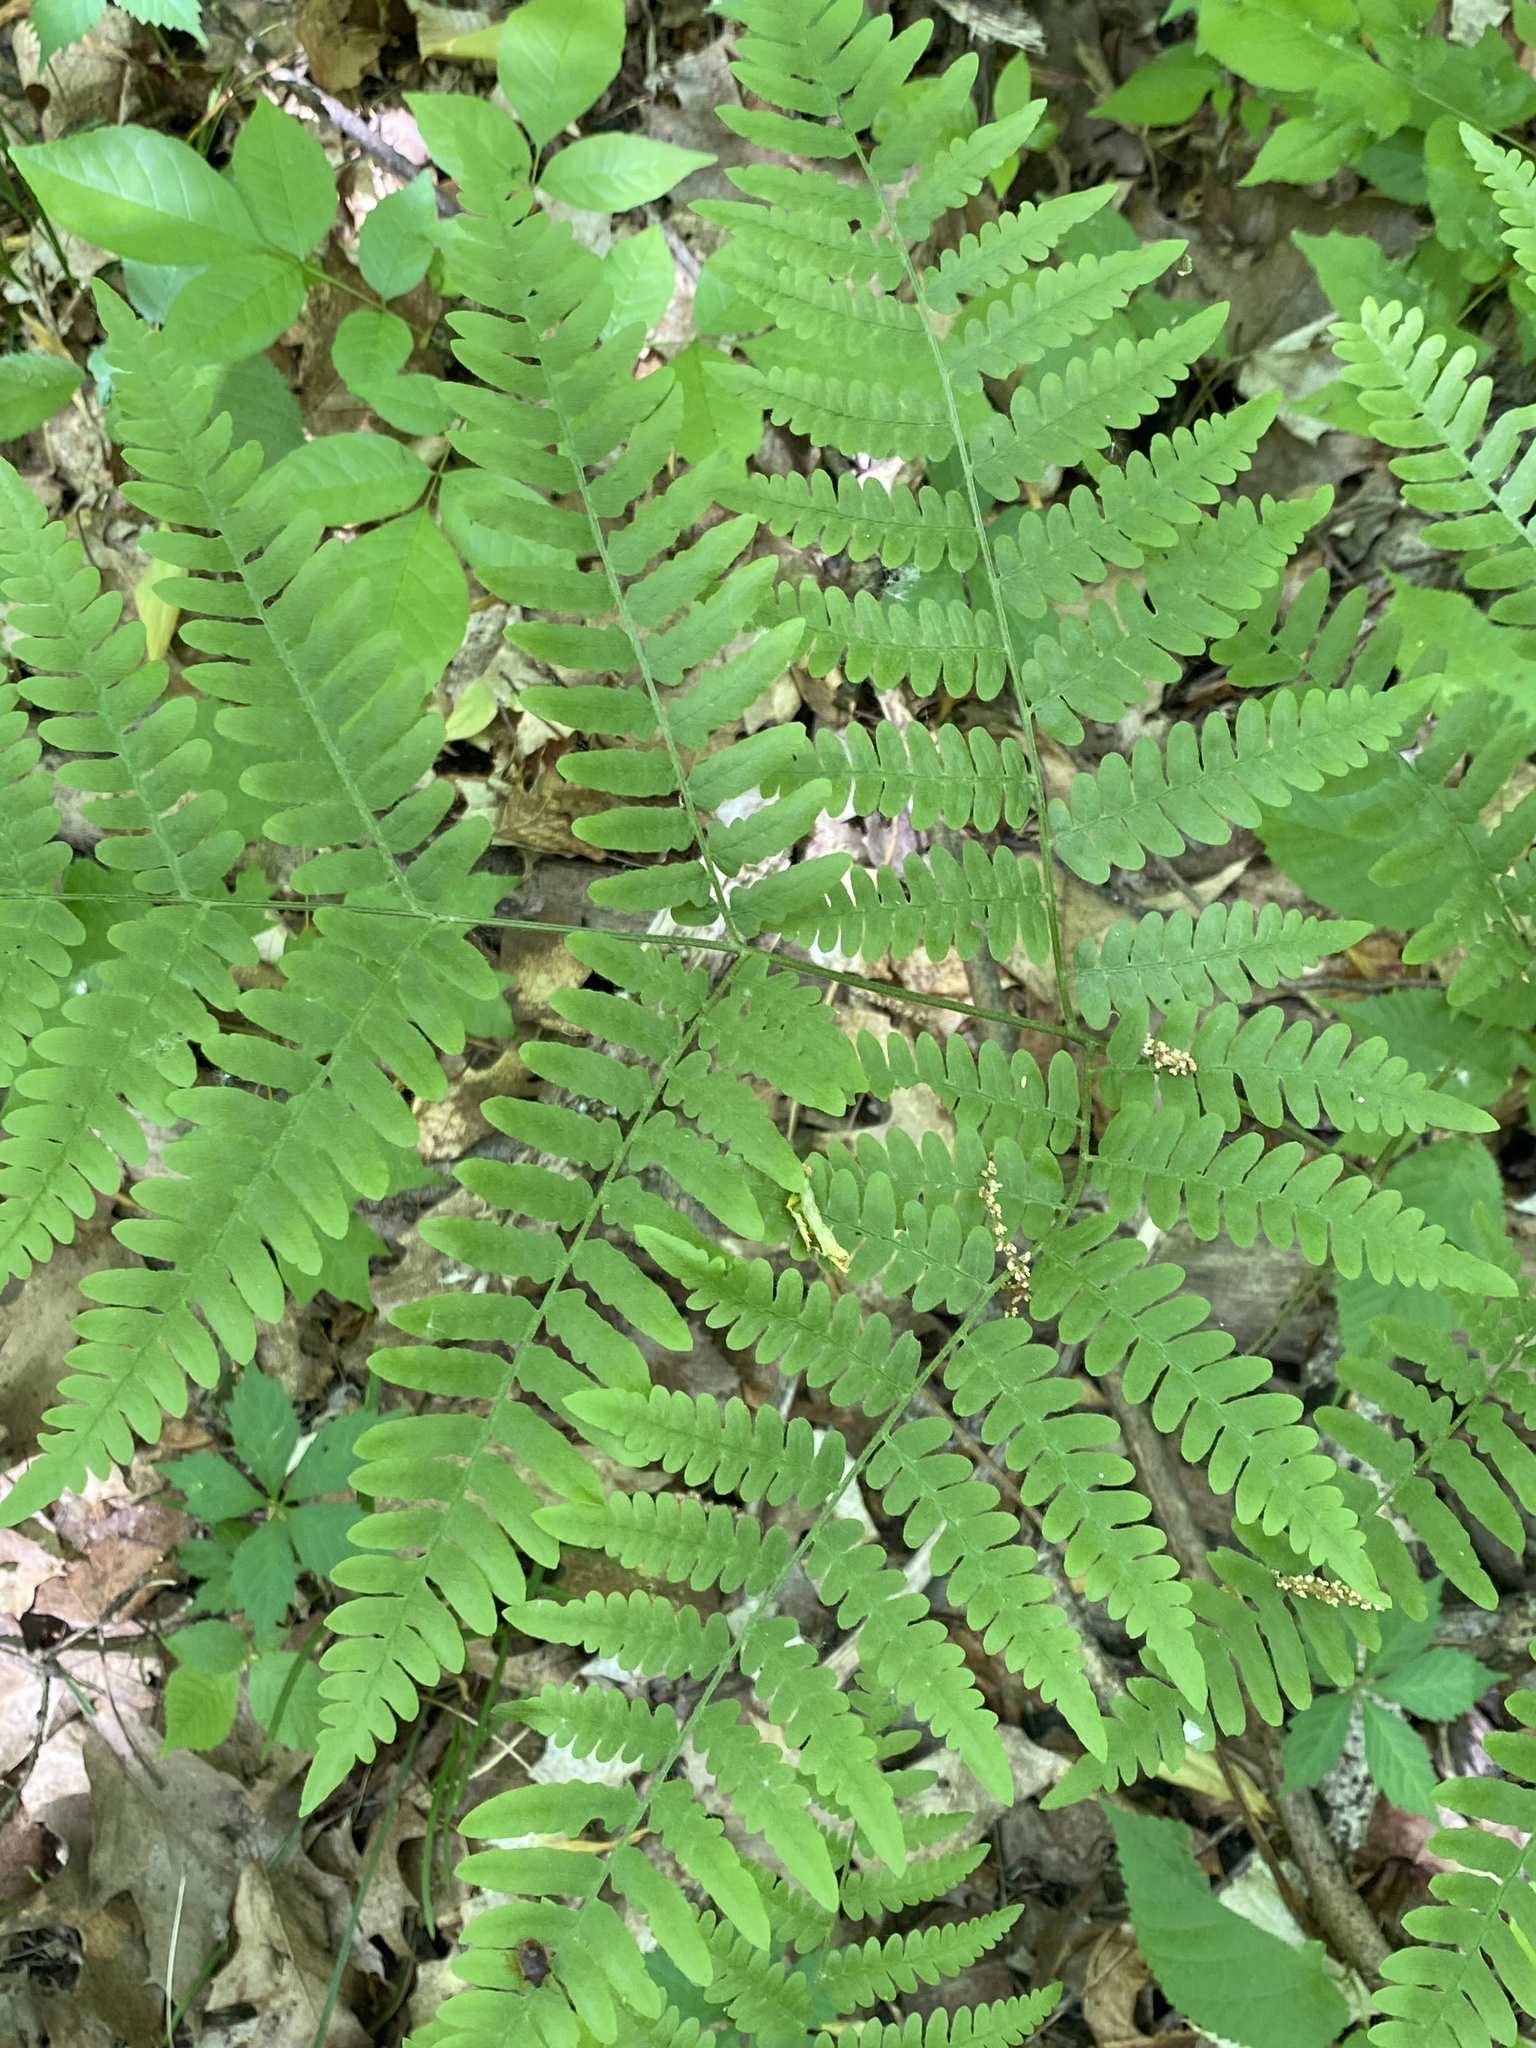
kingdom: Plantae
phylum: Tracheophyta
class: Polypodiopsida
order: Polypodiales
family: Dennstaedtiaceae
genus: Pteridium
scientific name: Pteridium aquilinum
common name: Bracken
